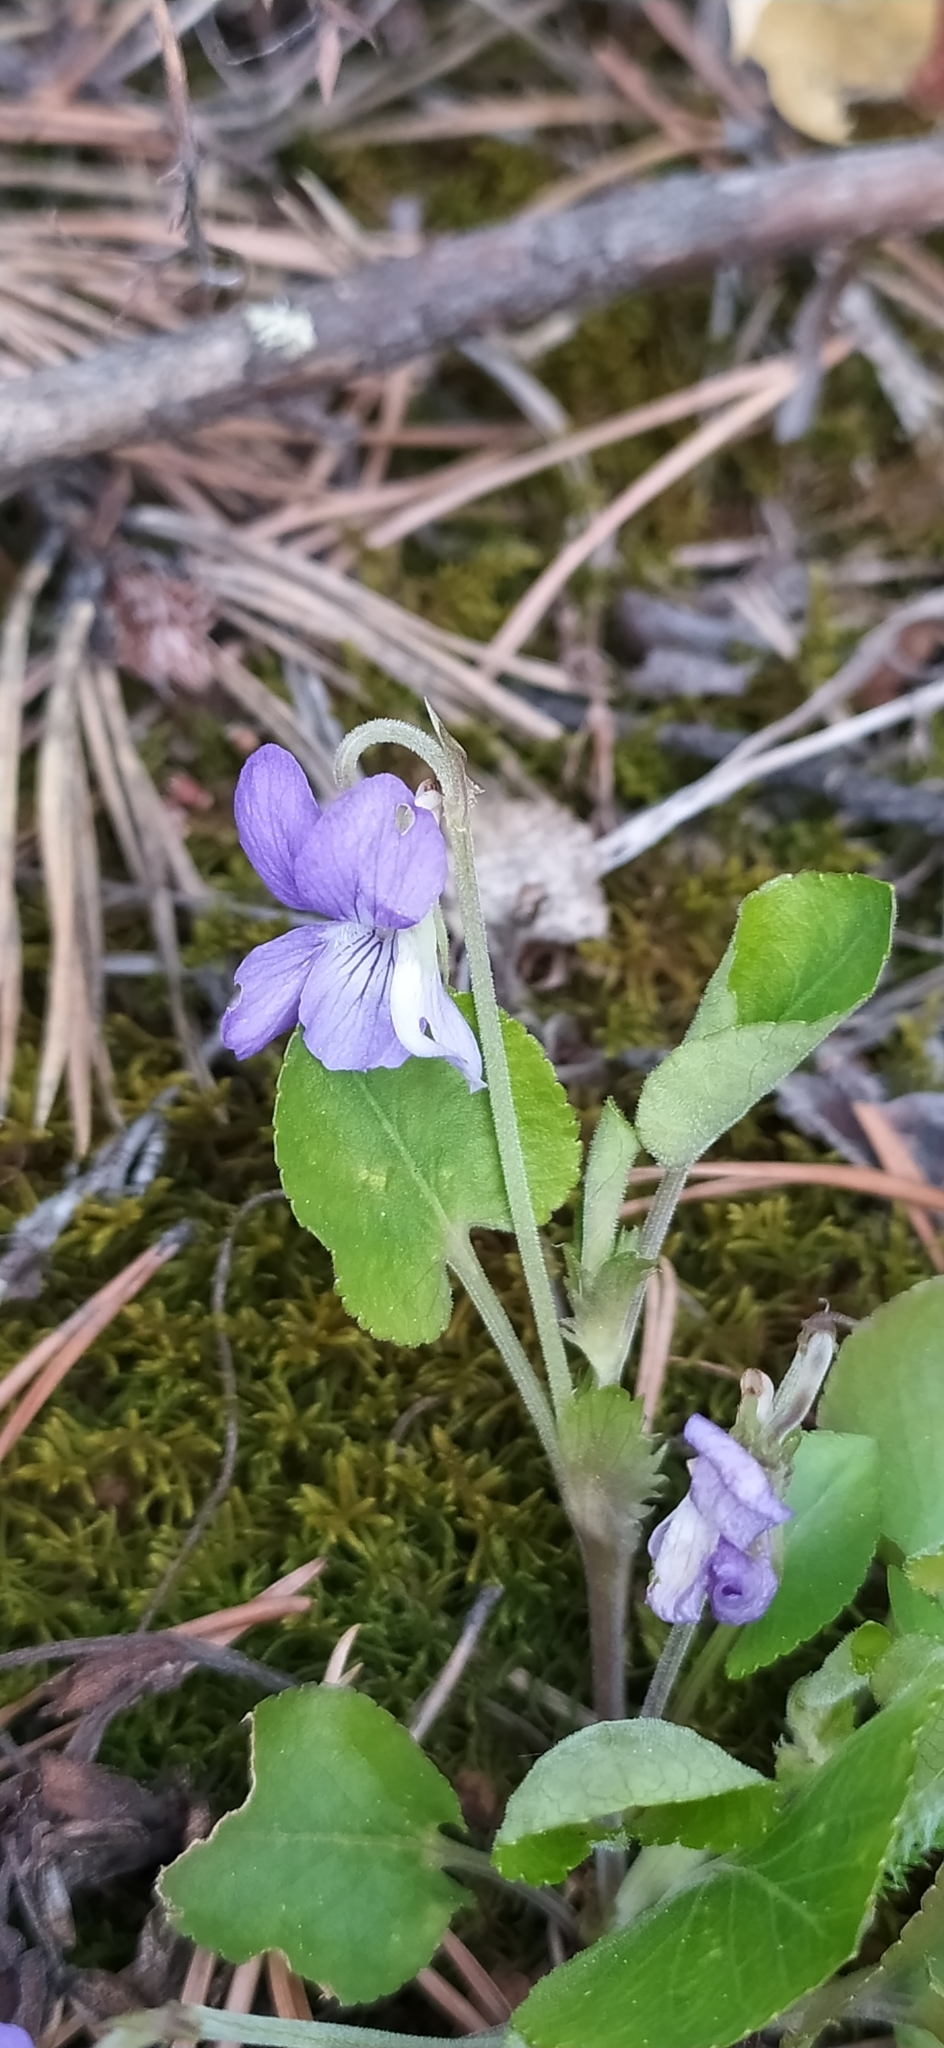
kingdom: Plantae
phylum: Tracheophyta
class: Magnoliopsida
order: Malpighiales
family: Violaceae
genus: Viola
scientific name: Viola rupestris
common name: Teesdale violet
